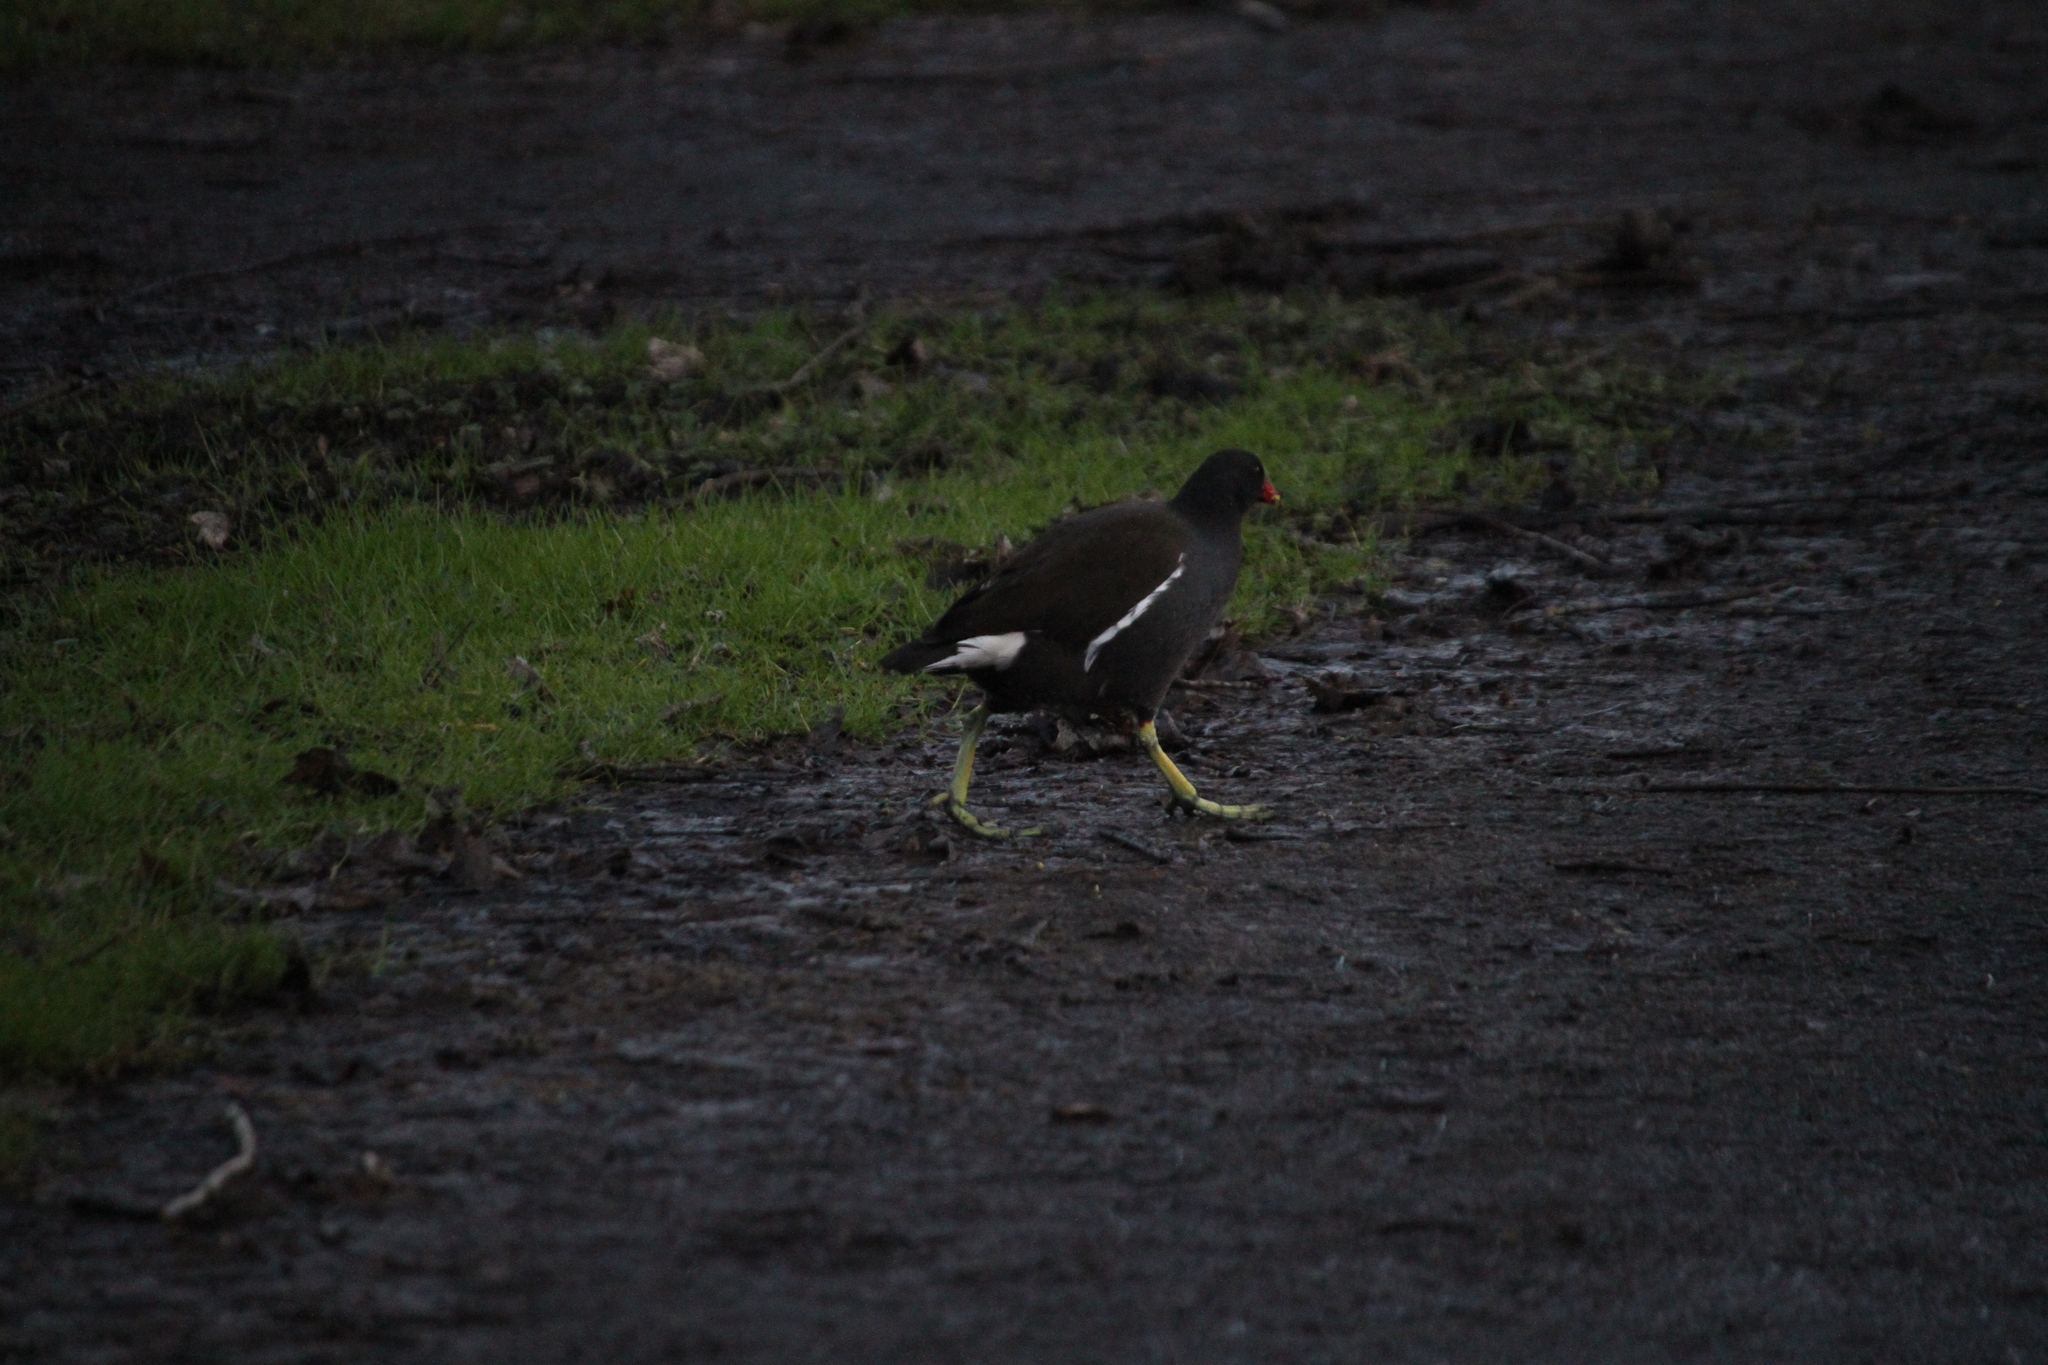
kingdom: Animalia
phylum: Chordata
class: Aves
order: Gruiformes
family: Rallidae
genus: Gallinula
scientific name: Gallinula chloropus
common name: Common moorhen
